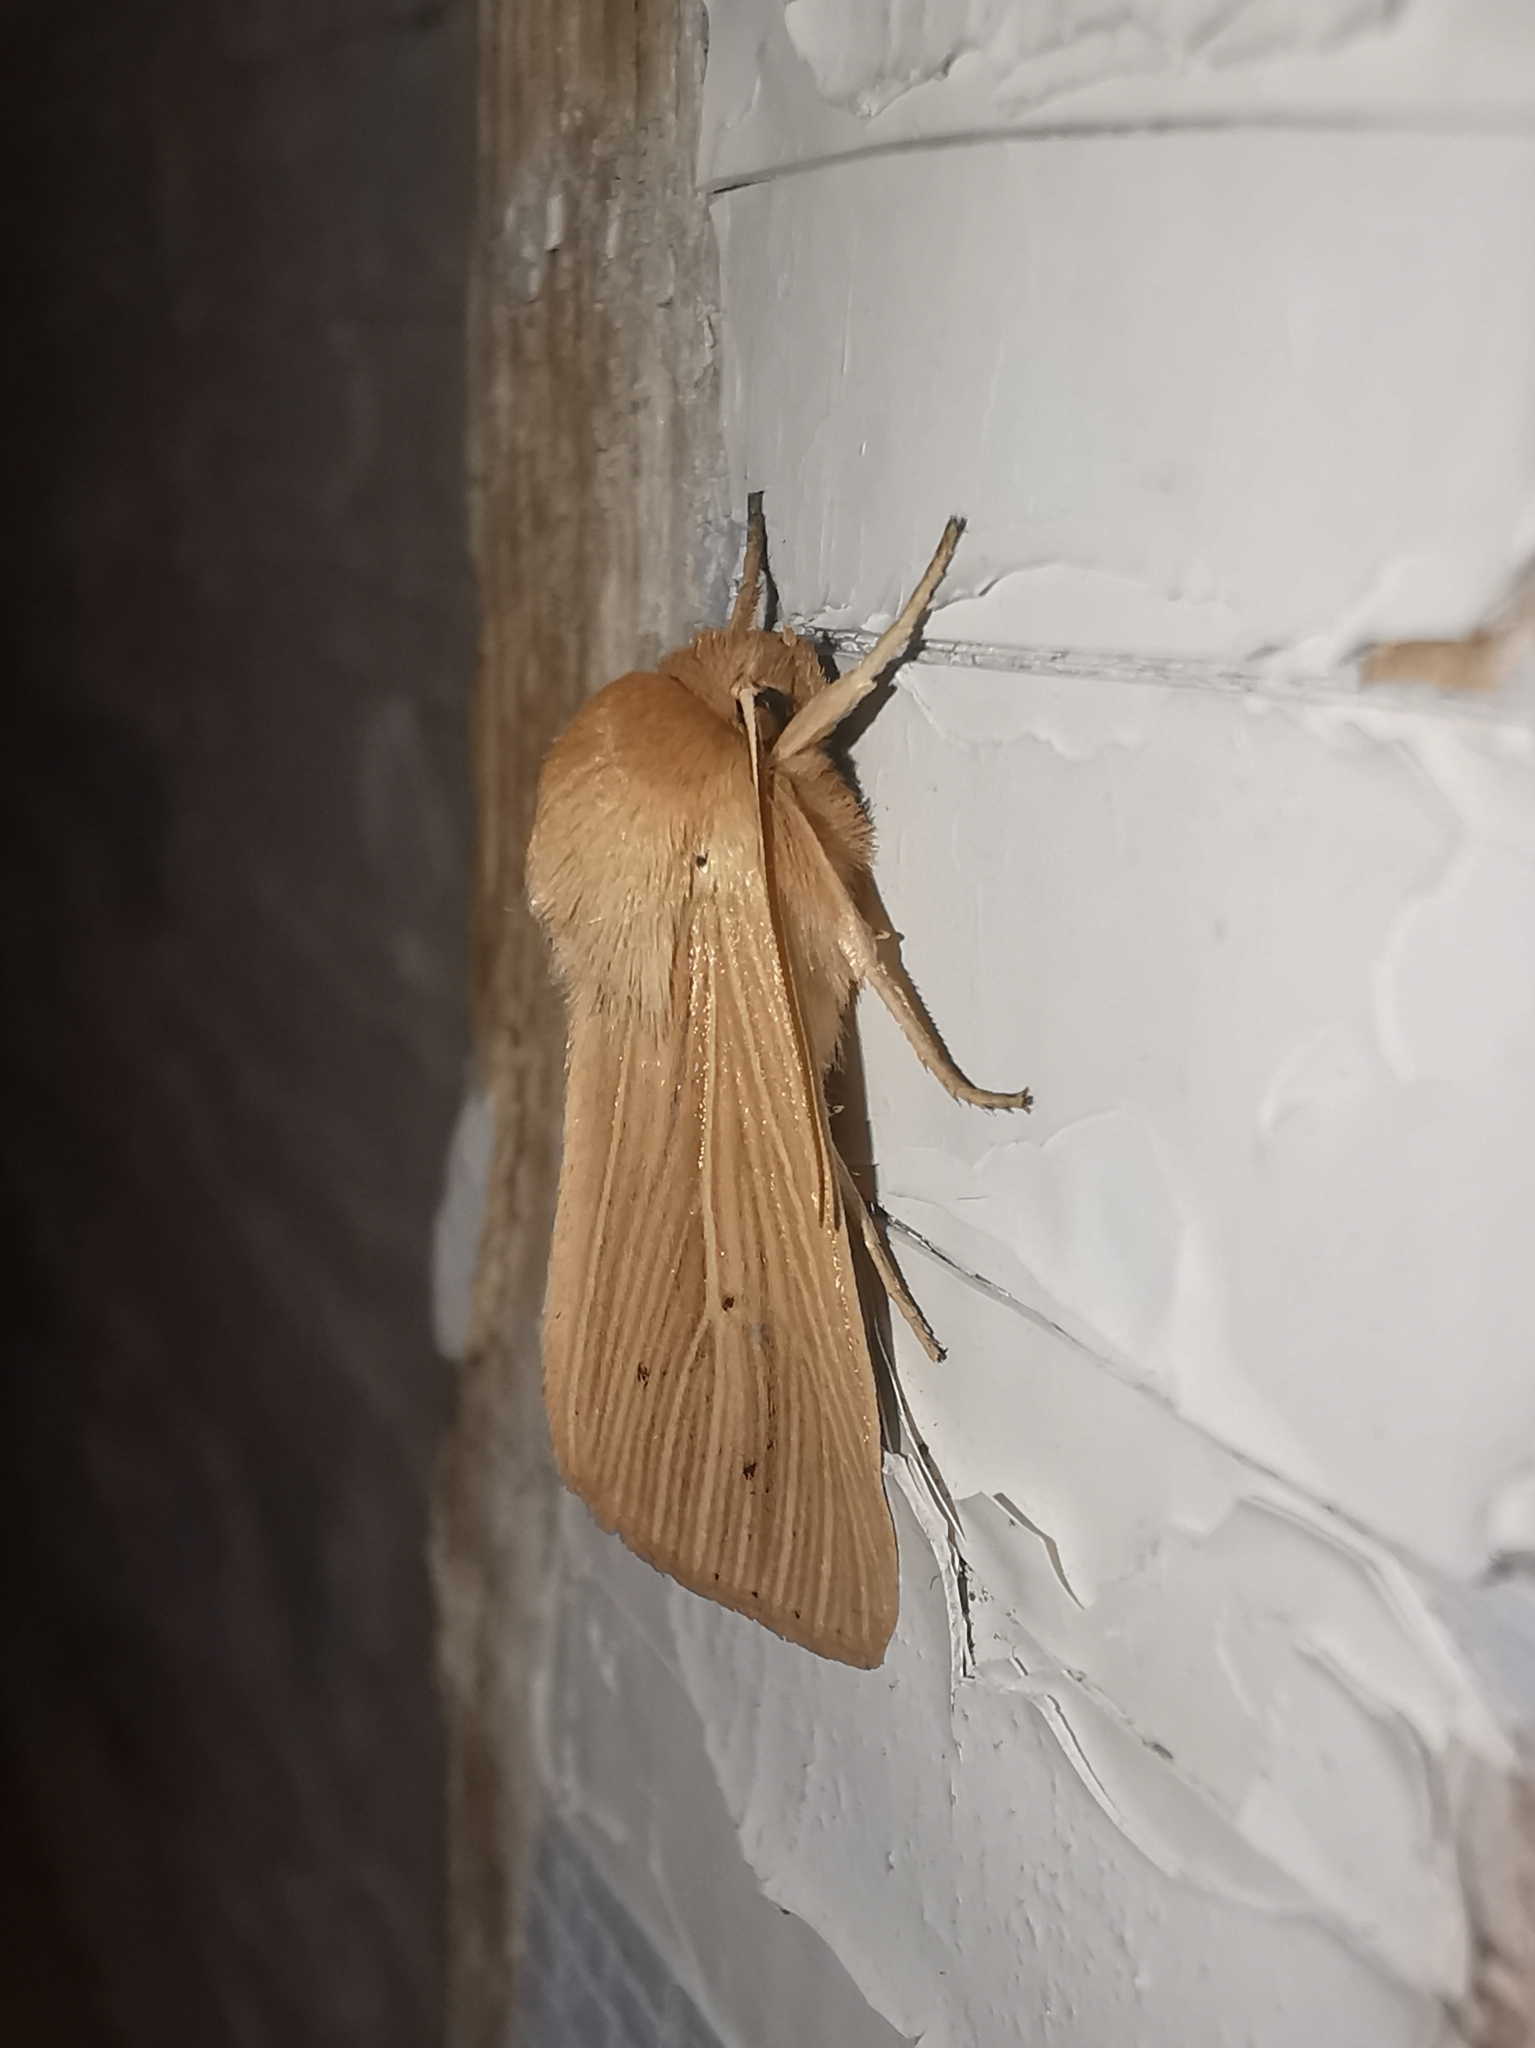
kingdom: Animalia
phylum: Arthropoda
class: Insecta
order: Lepidoptera
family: Noctuidae
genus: Mythimna
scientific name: Mythimna pallens
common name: Common wainscot
